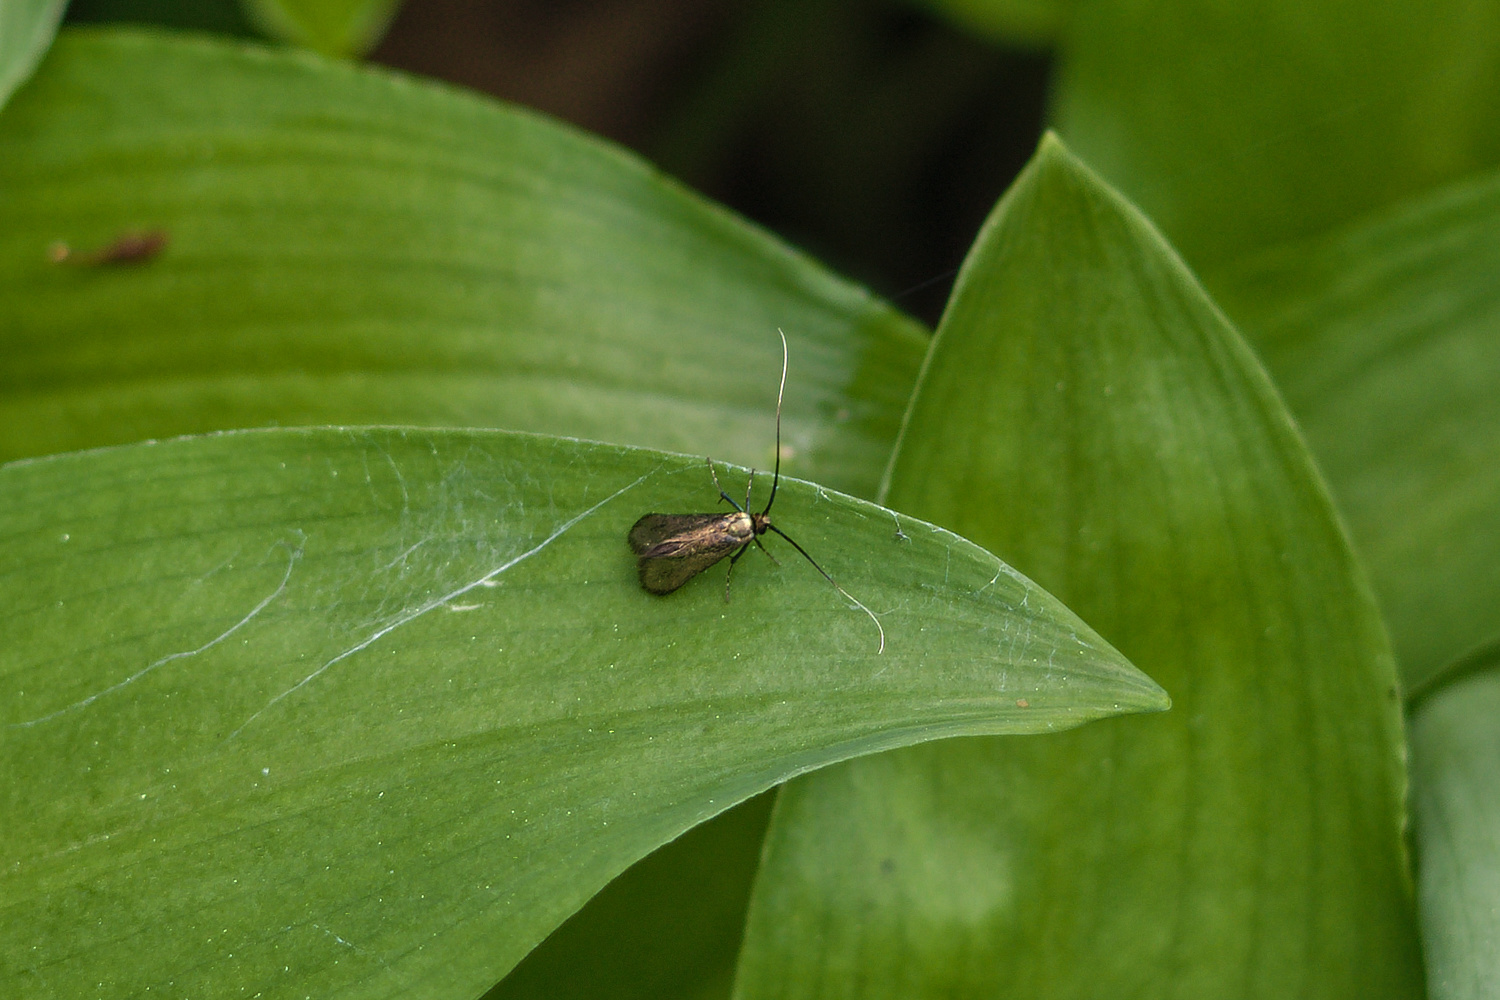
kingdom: Animalia
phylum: Arthropoda
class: Insecta
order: Lepidoptera
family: Adelidae
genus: Adela
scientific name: Adela viridella
